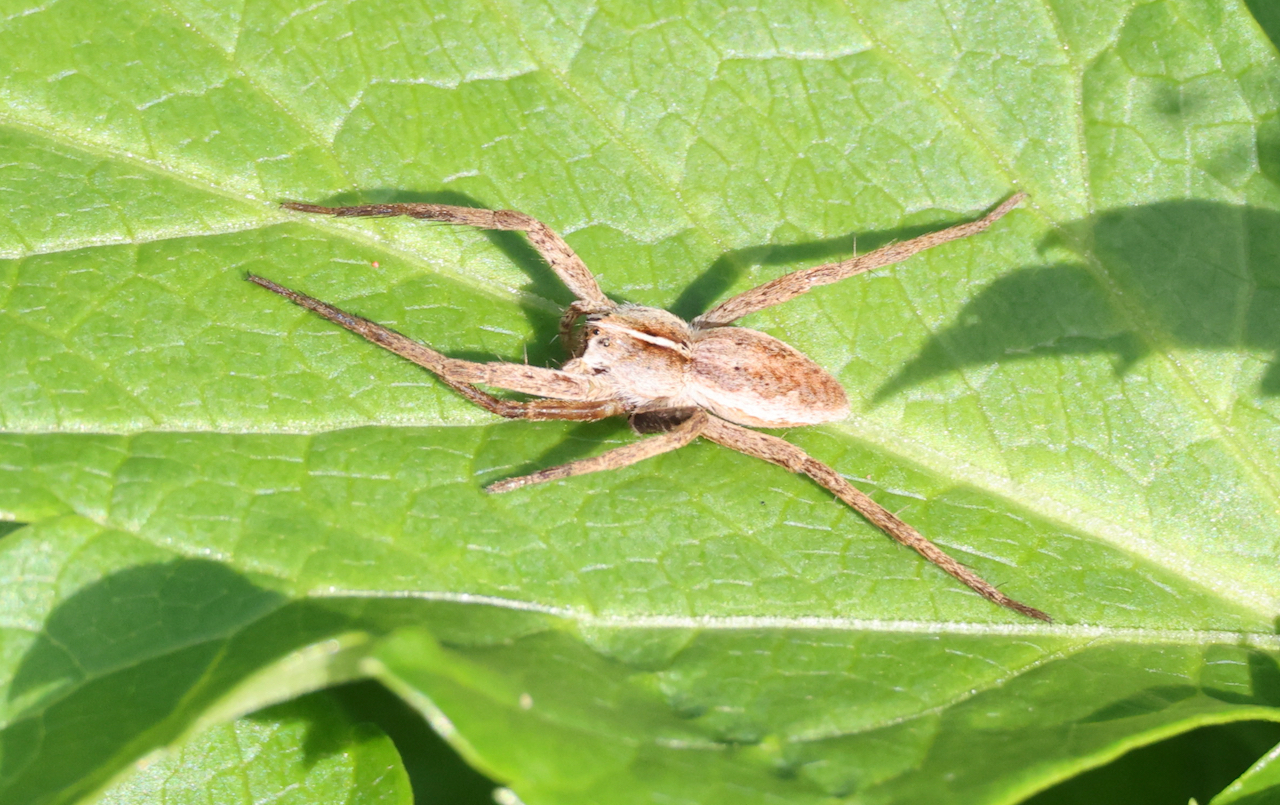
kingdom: Animalia
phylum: Arthropoda
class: Arachnida
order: Araneae
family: Pisauridae
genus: Pisaura
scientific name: Pisaura mirabilis
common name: Tent spider
